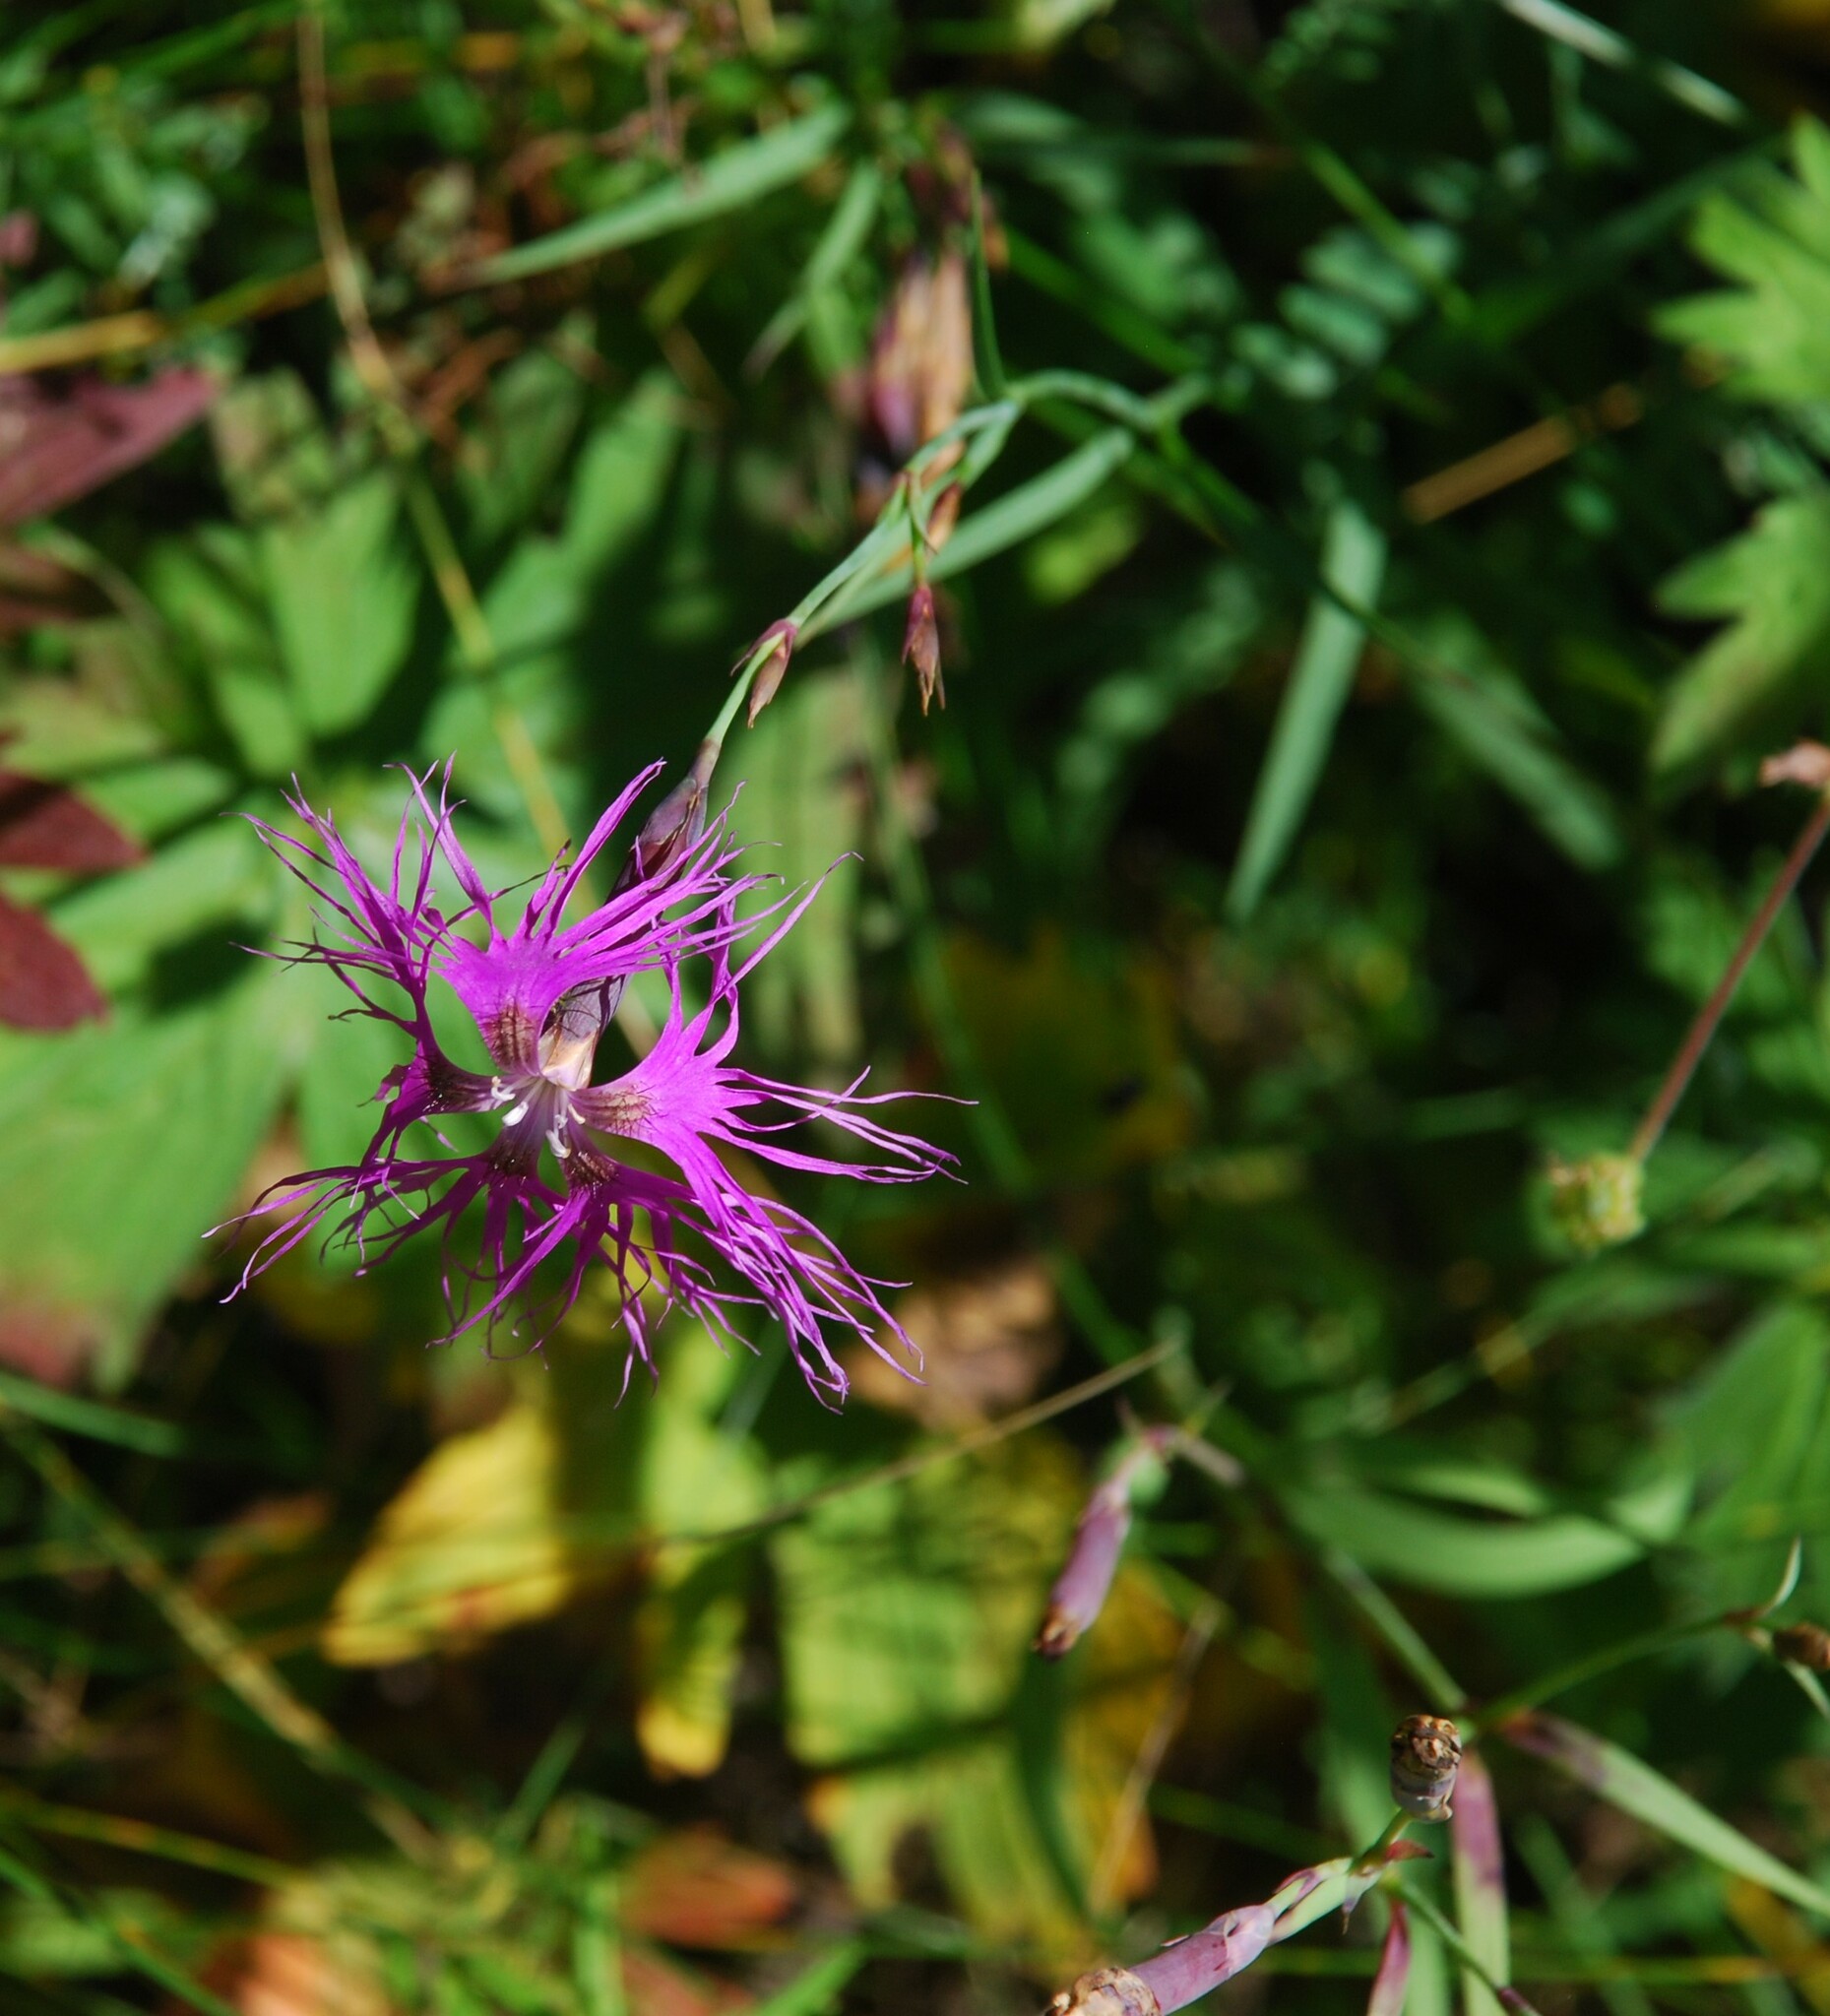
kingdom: Plantae
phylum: Tracheophyta
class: Magnoliopsida
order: Caryophyllales
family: Caryophyllaceae
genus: Dianthus
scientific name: Dianthus superbus
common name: Fringed pink
